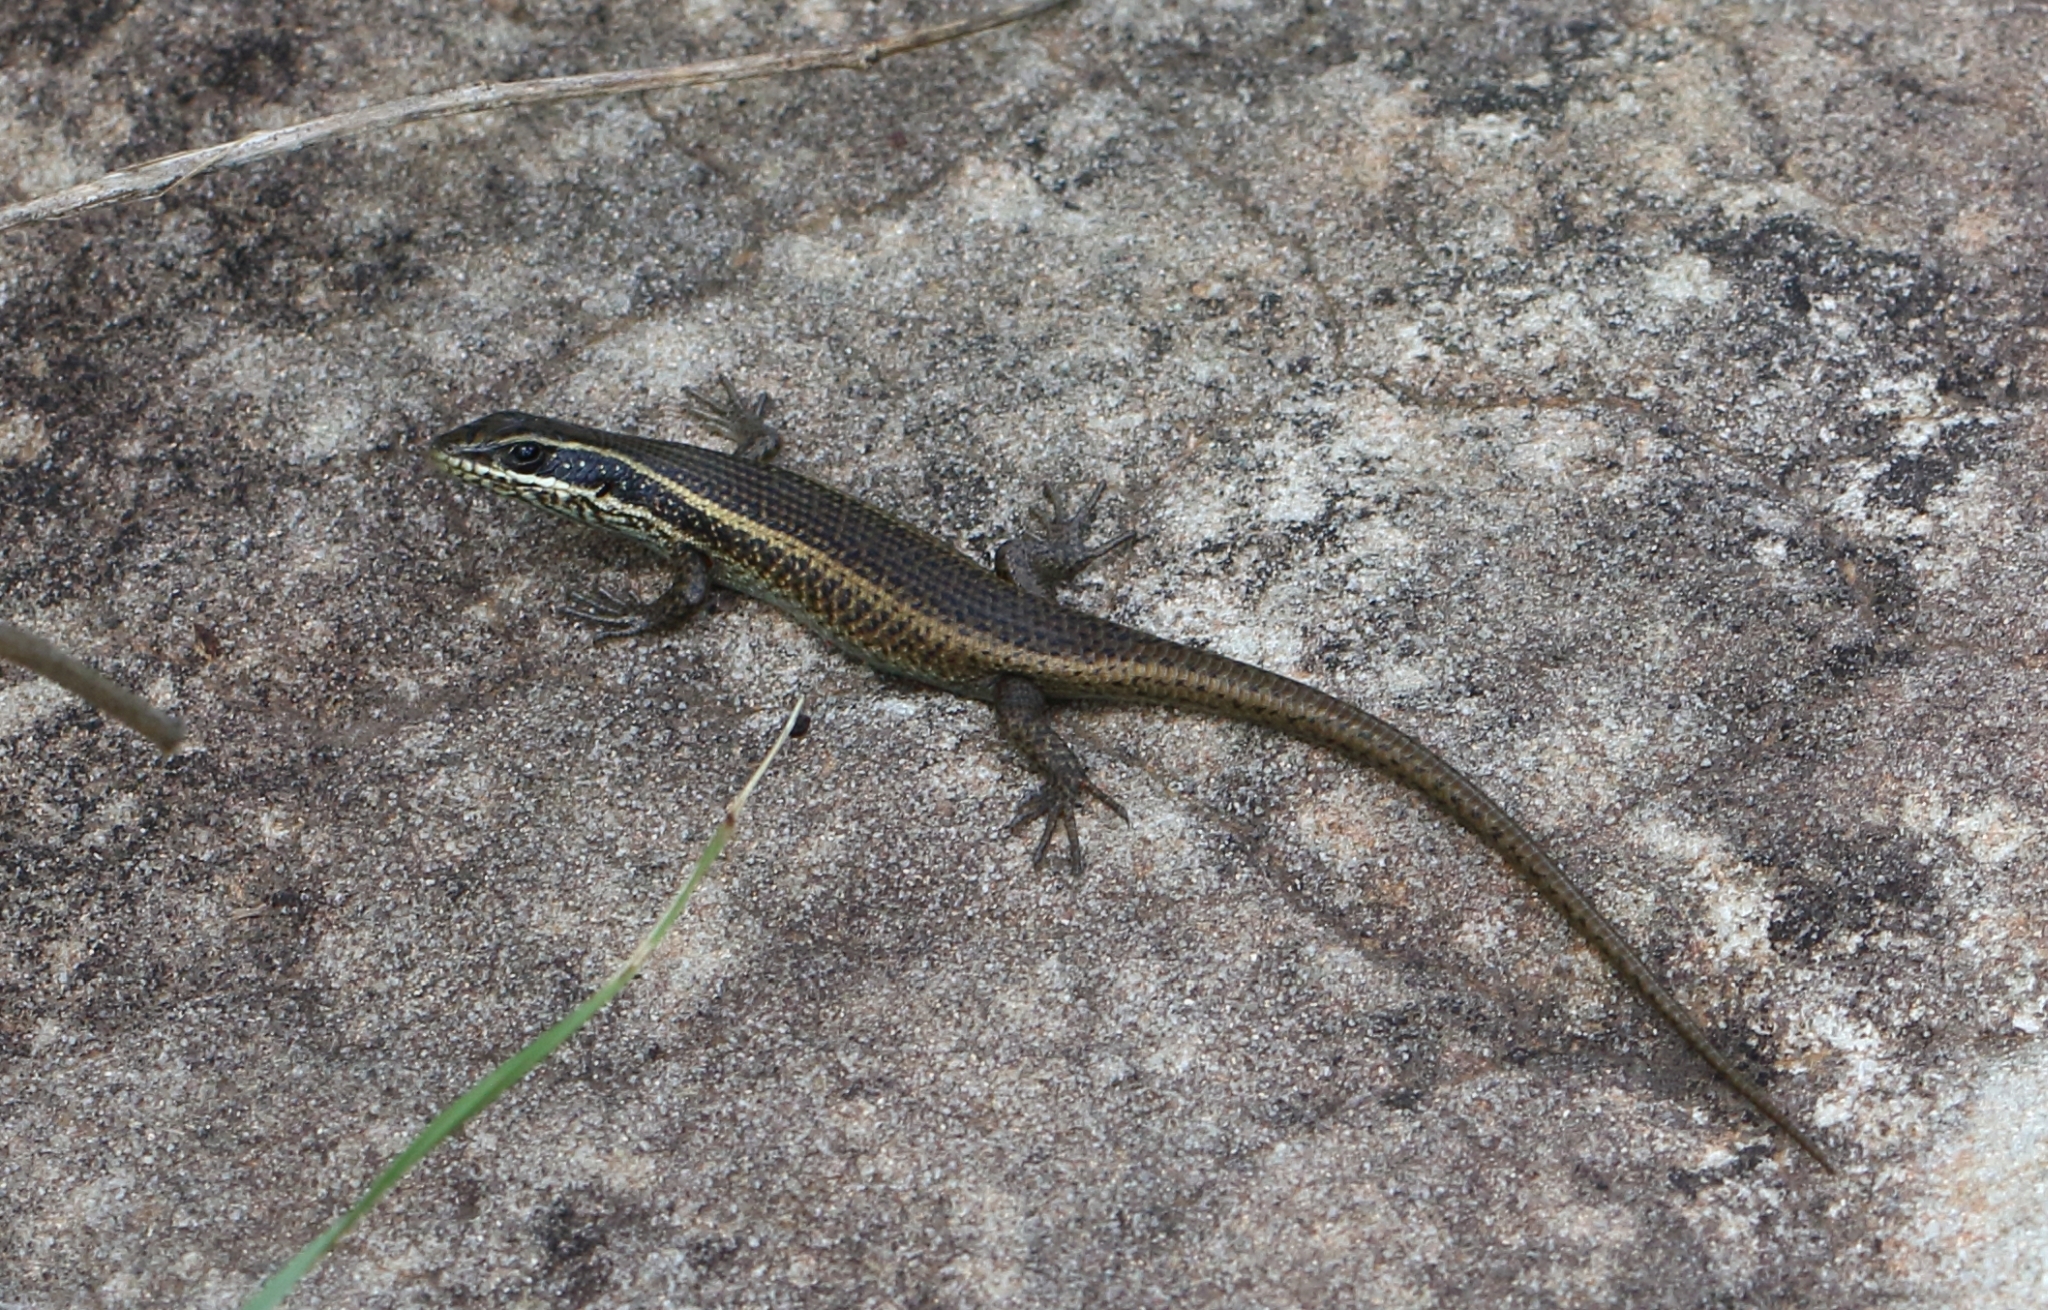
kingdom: Animalia
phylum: Chordata
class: Squamata
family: Scincidae
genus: Trachylepis
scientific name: Trachylepis punctatissima
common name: Montane speckled skink
